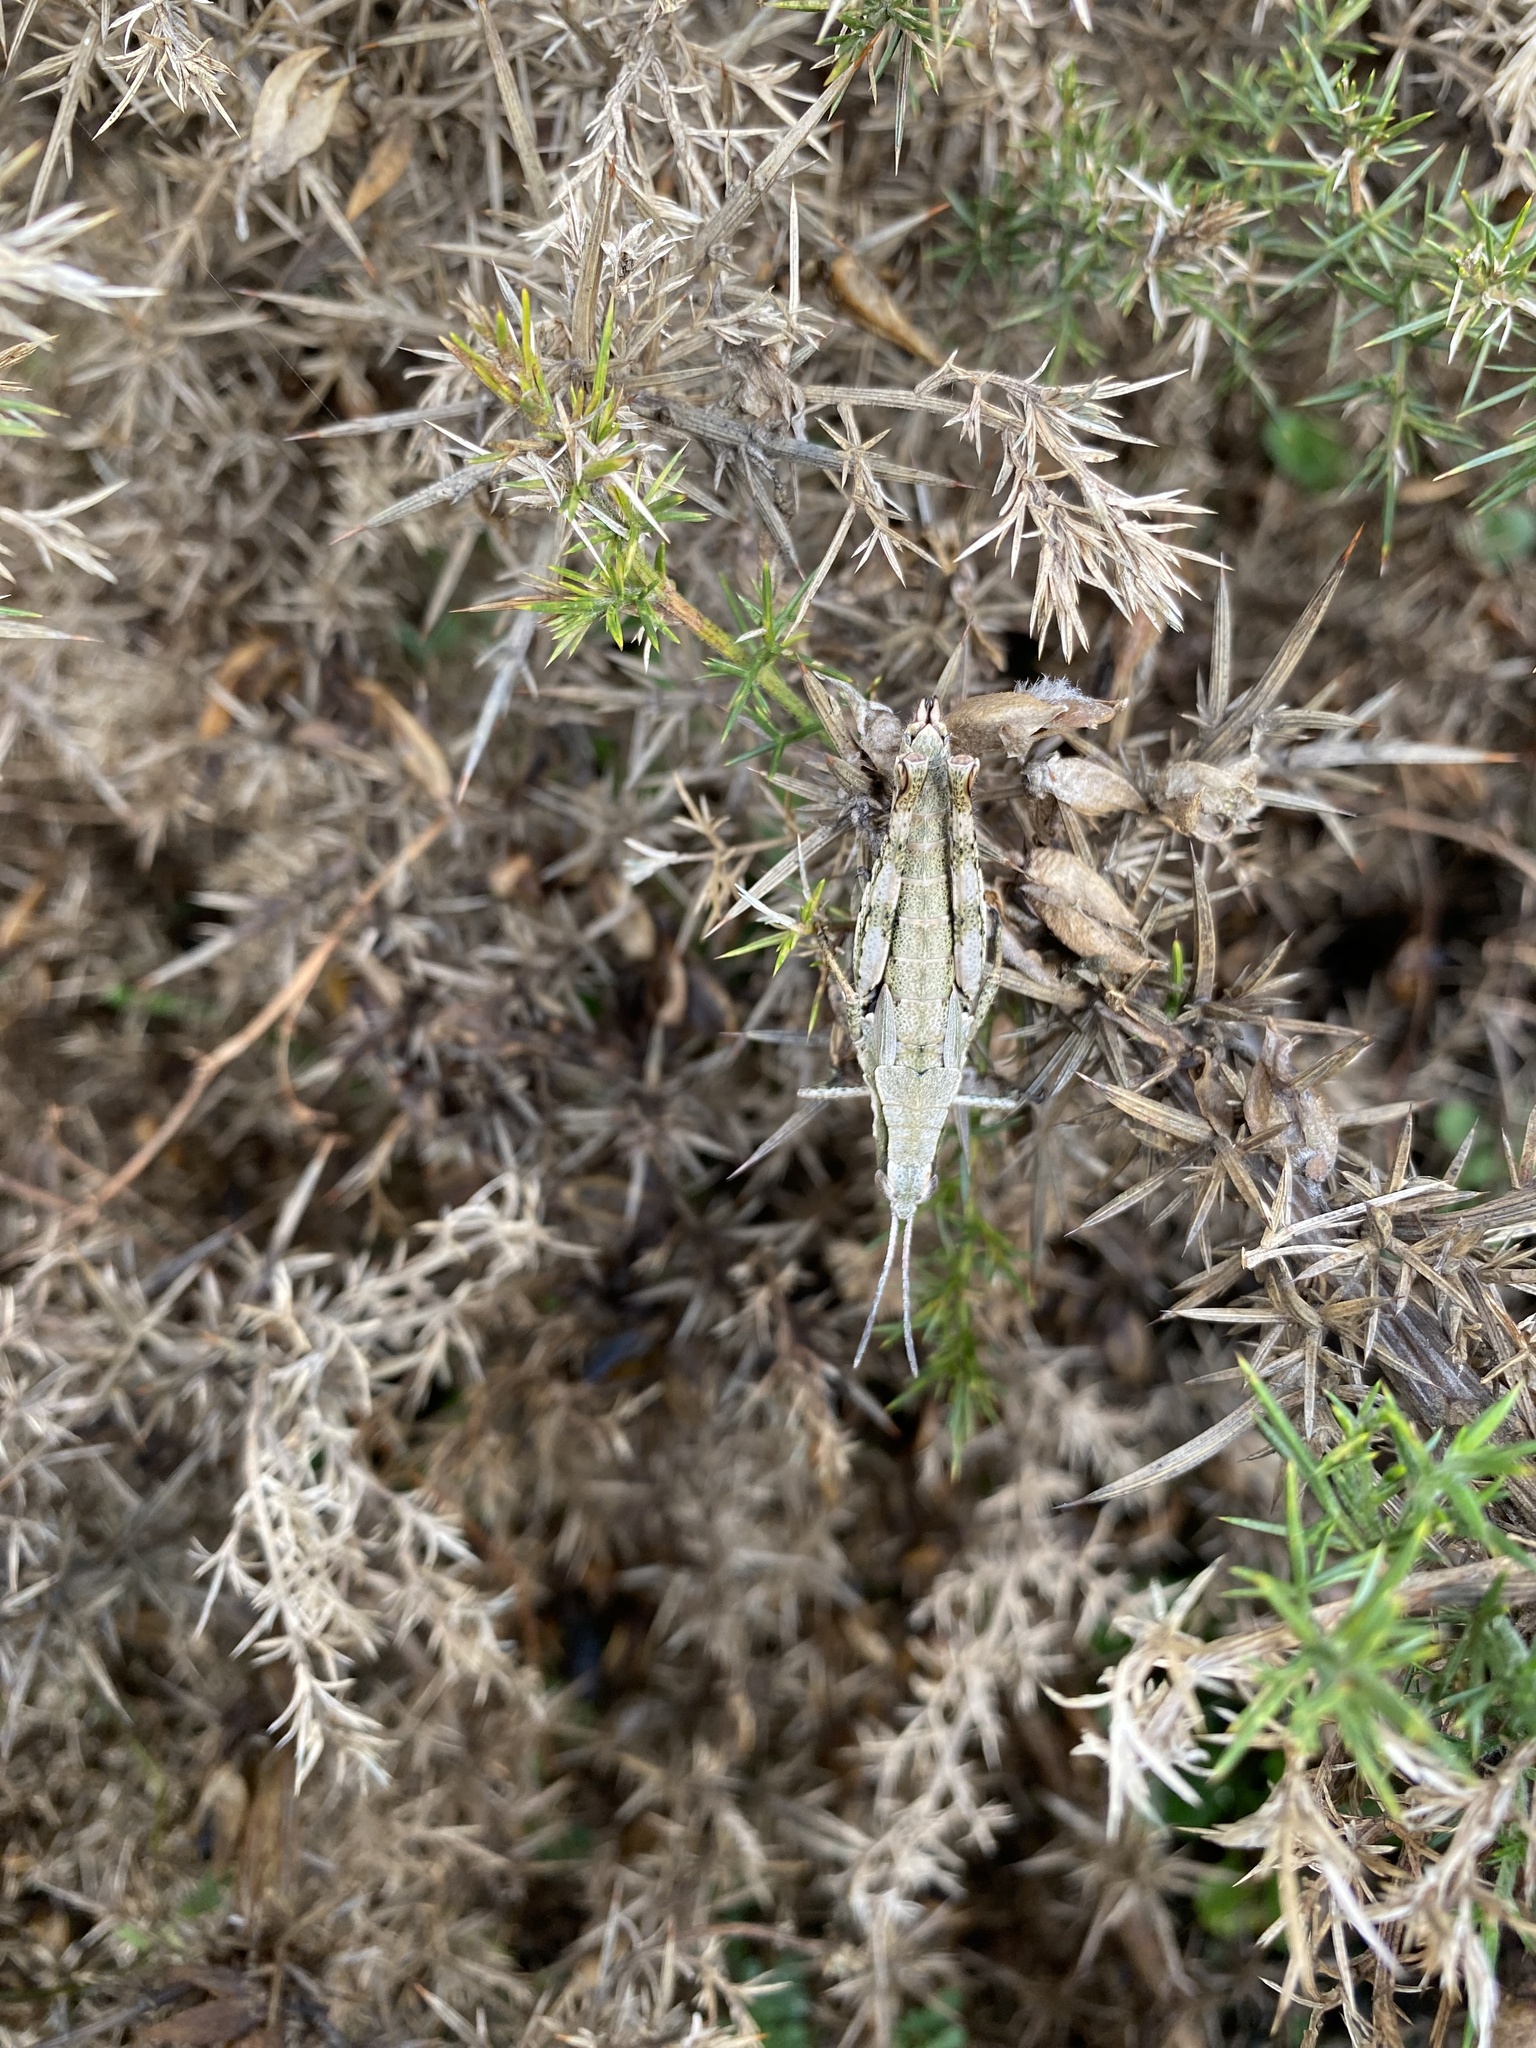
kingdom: Animalia
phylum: Arthropoda
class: Insecta
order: Orthoptera
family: Acrididae
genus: Sigaus
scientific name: Sigaus piliferus
